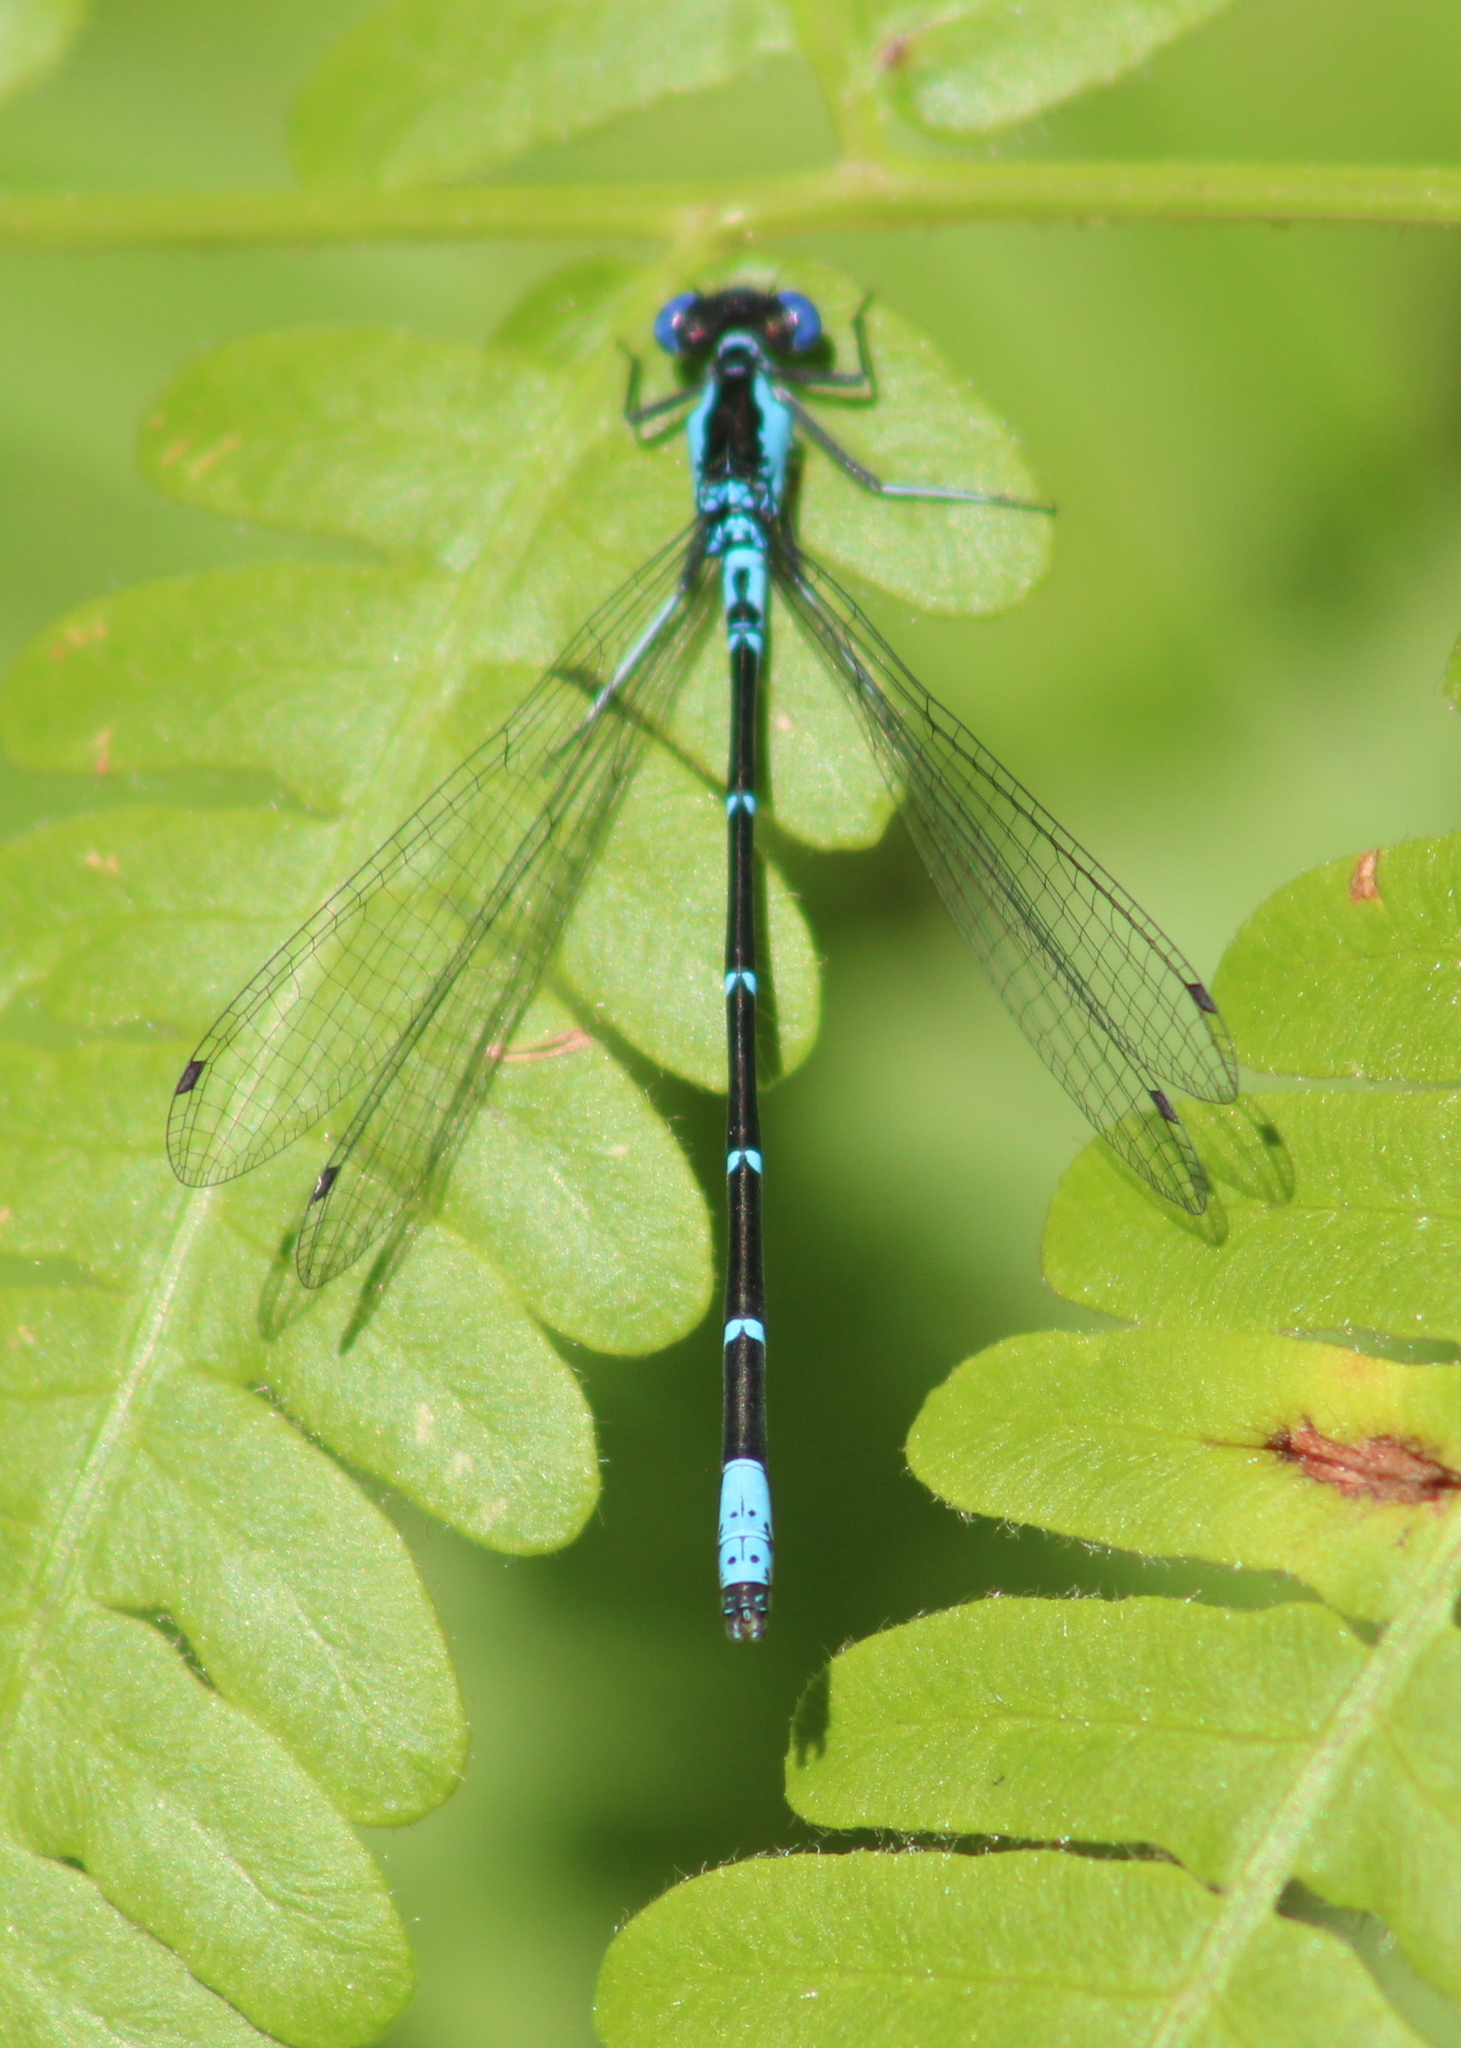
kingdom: Animalia
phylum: Arthropoda
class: Insecta
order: Odonata
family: Coenagrionidae
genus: Chromagrion
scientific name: Chromagrion conditum
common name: Aurora damsel
